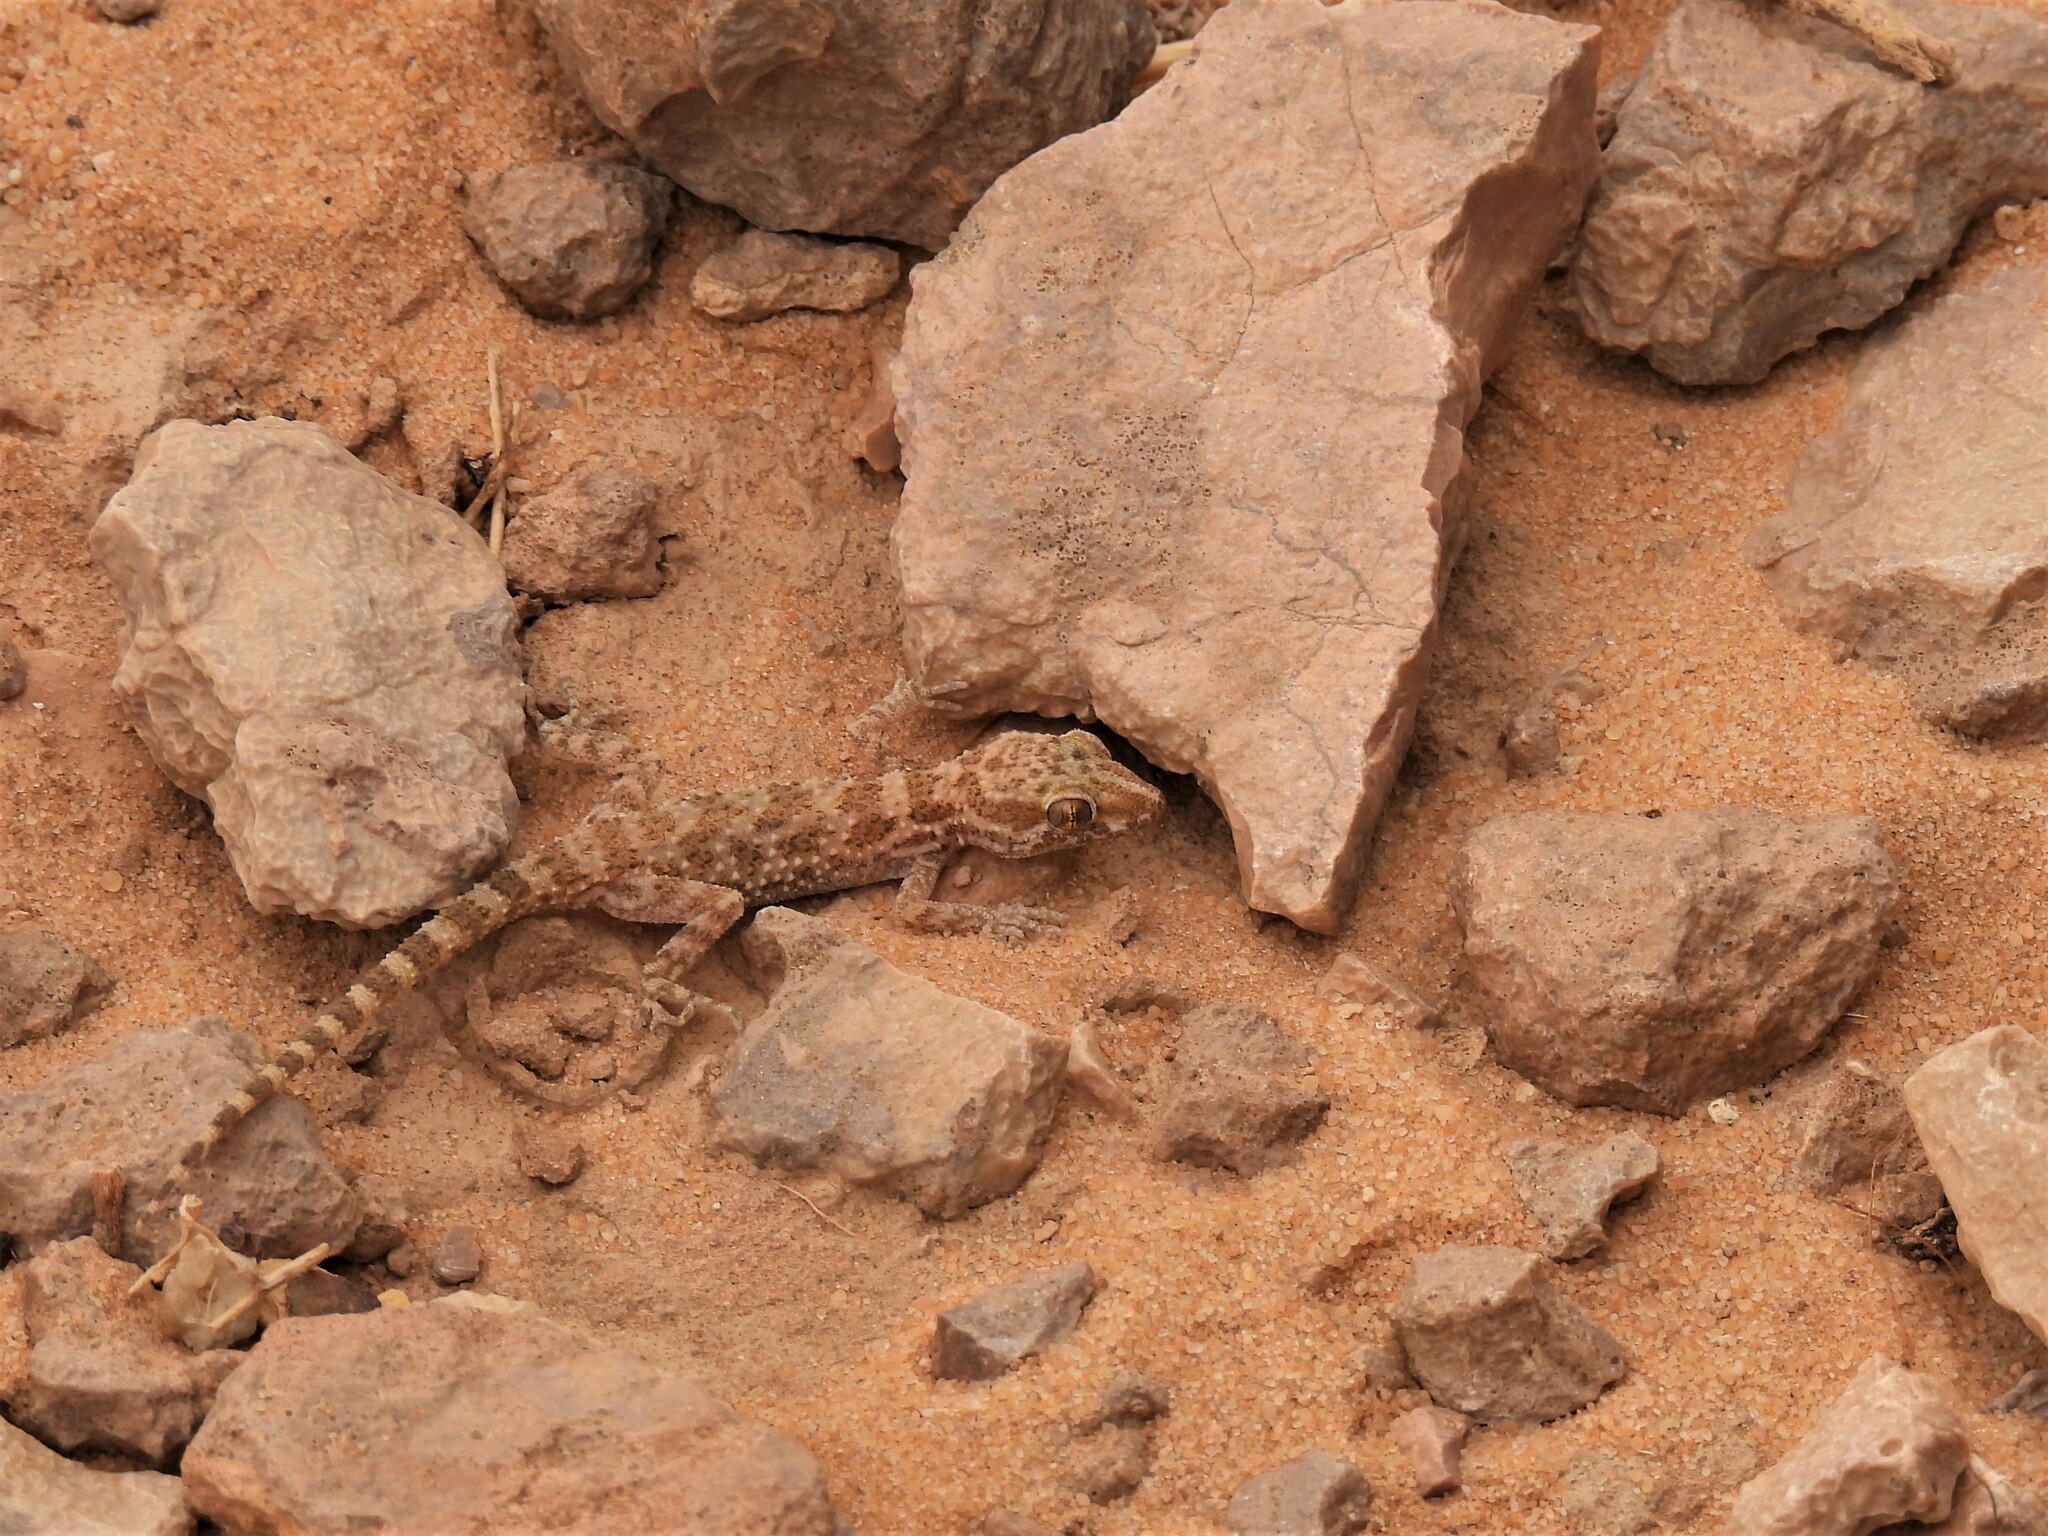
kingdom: Animalia
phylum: Chordata
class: Squamata
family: Gekkonidae
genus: Bunopus
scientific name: Bunopus tuberculatus
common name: Southern tuberculated gecko
